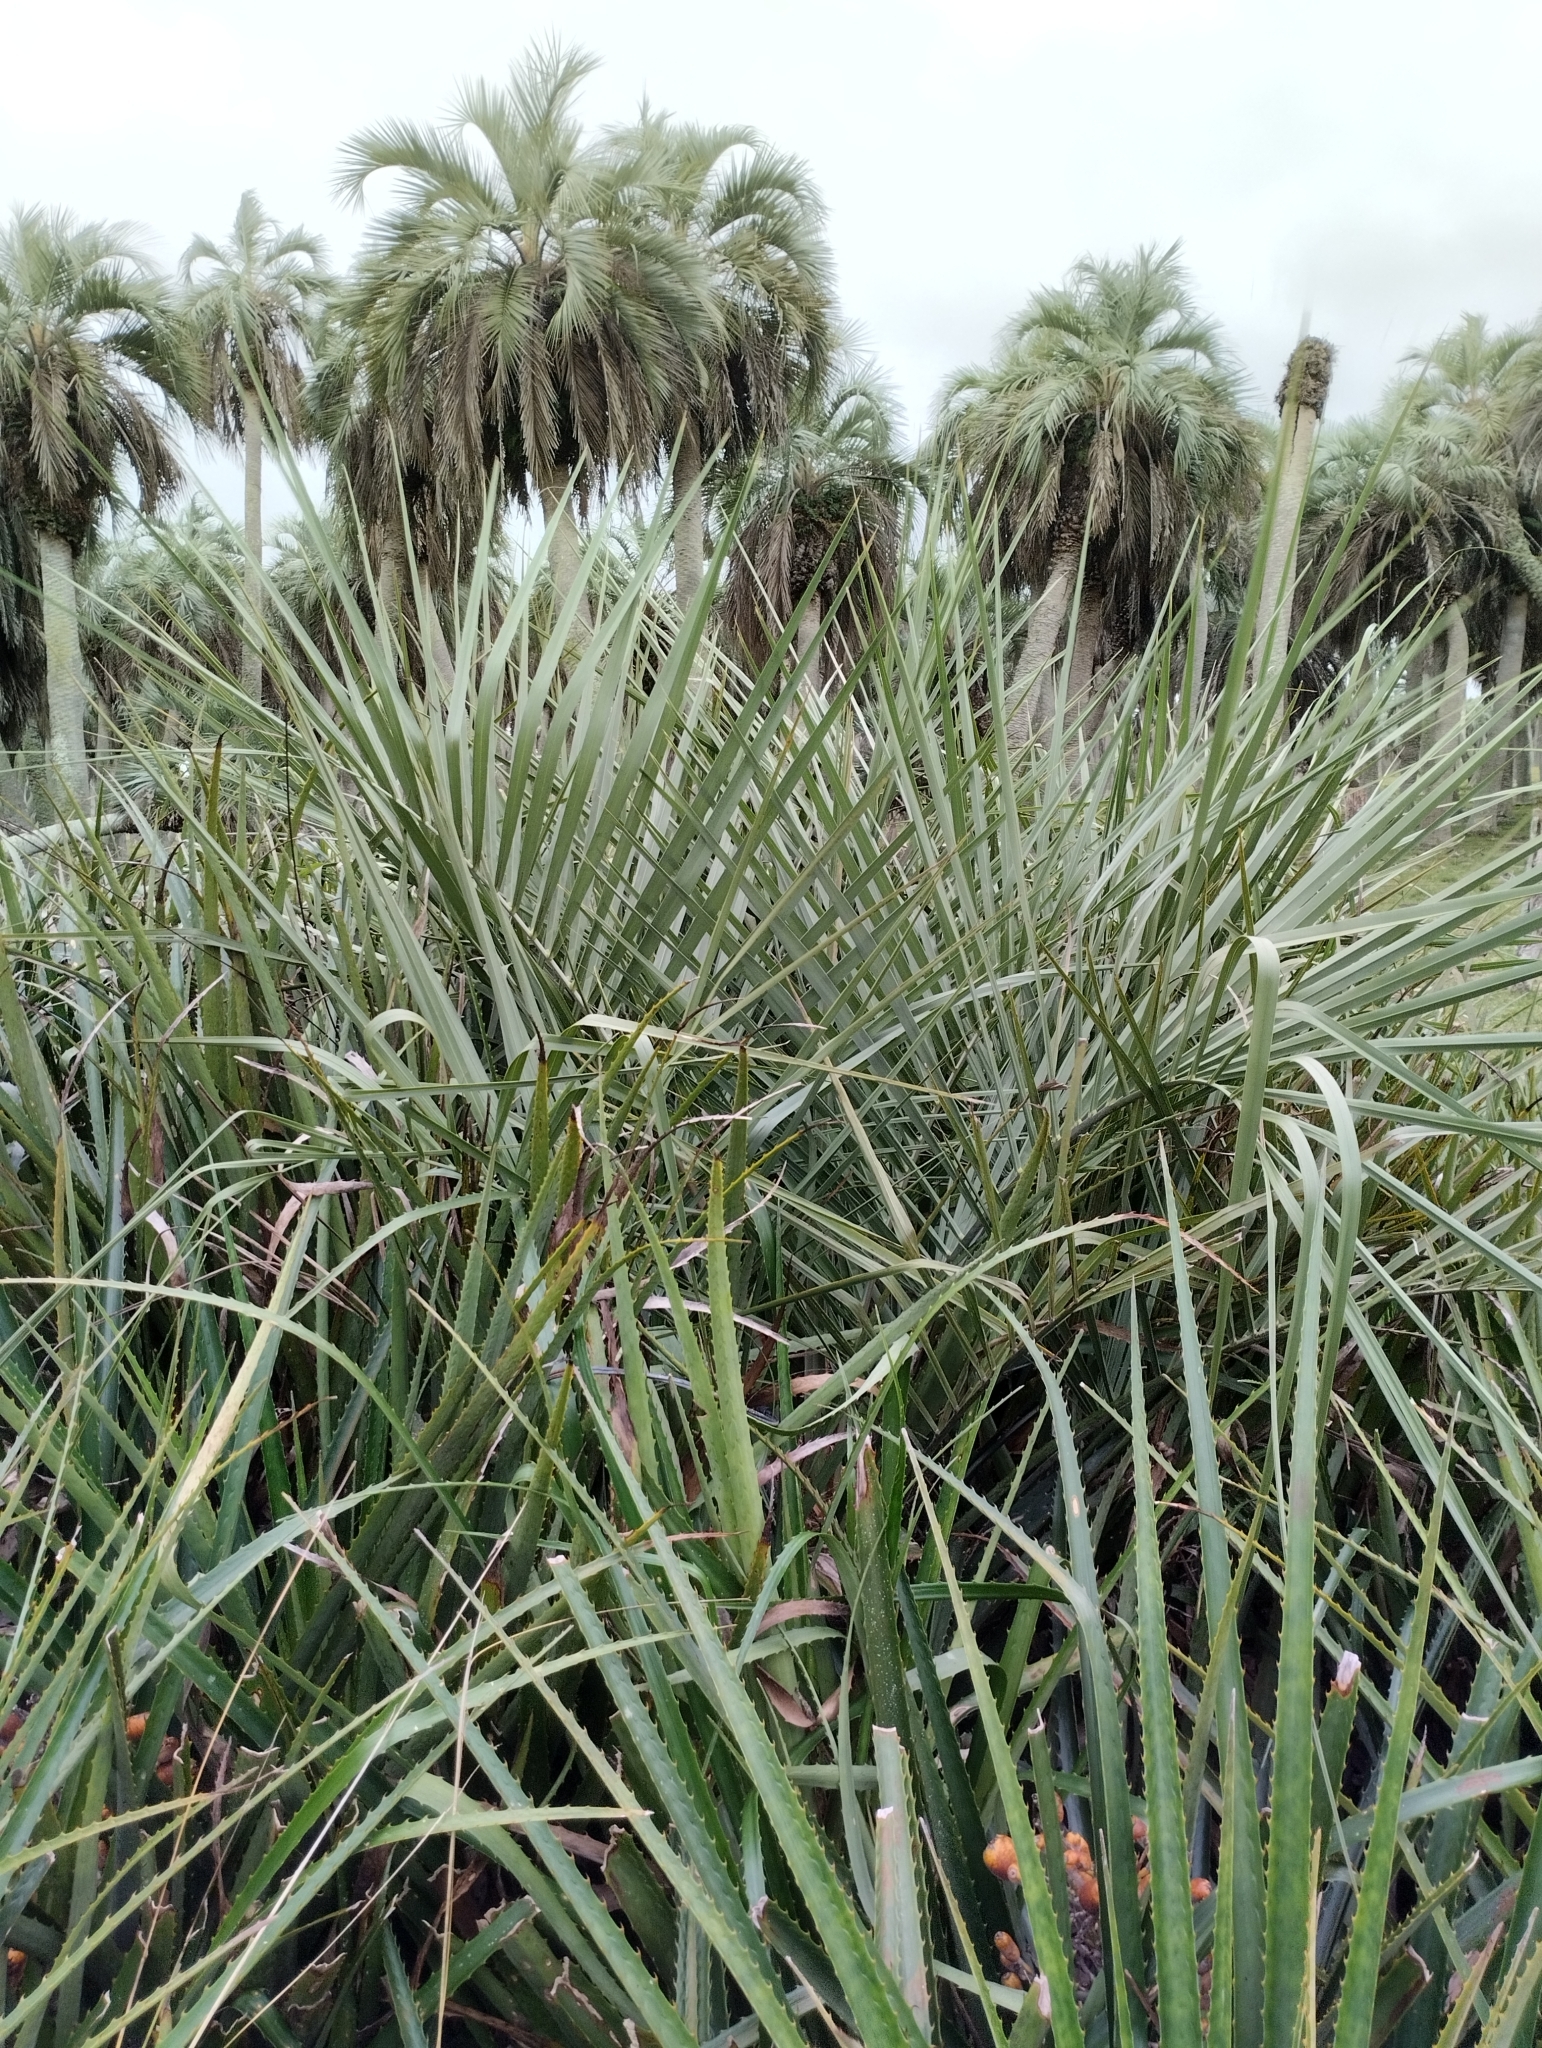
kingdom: Plantae
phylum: Tracheophyta
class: Liliopsida
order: Arecales
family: Arecaceae
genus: Butia
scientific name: Butia odorata
